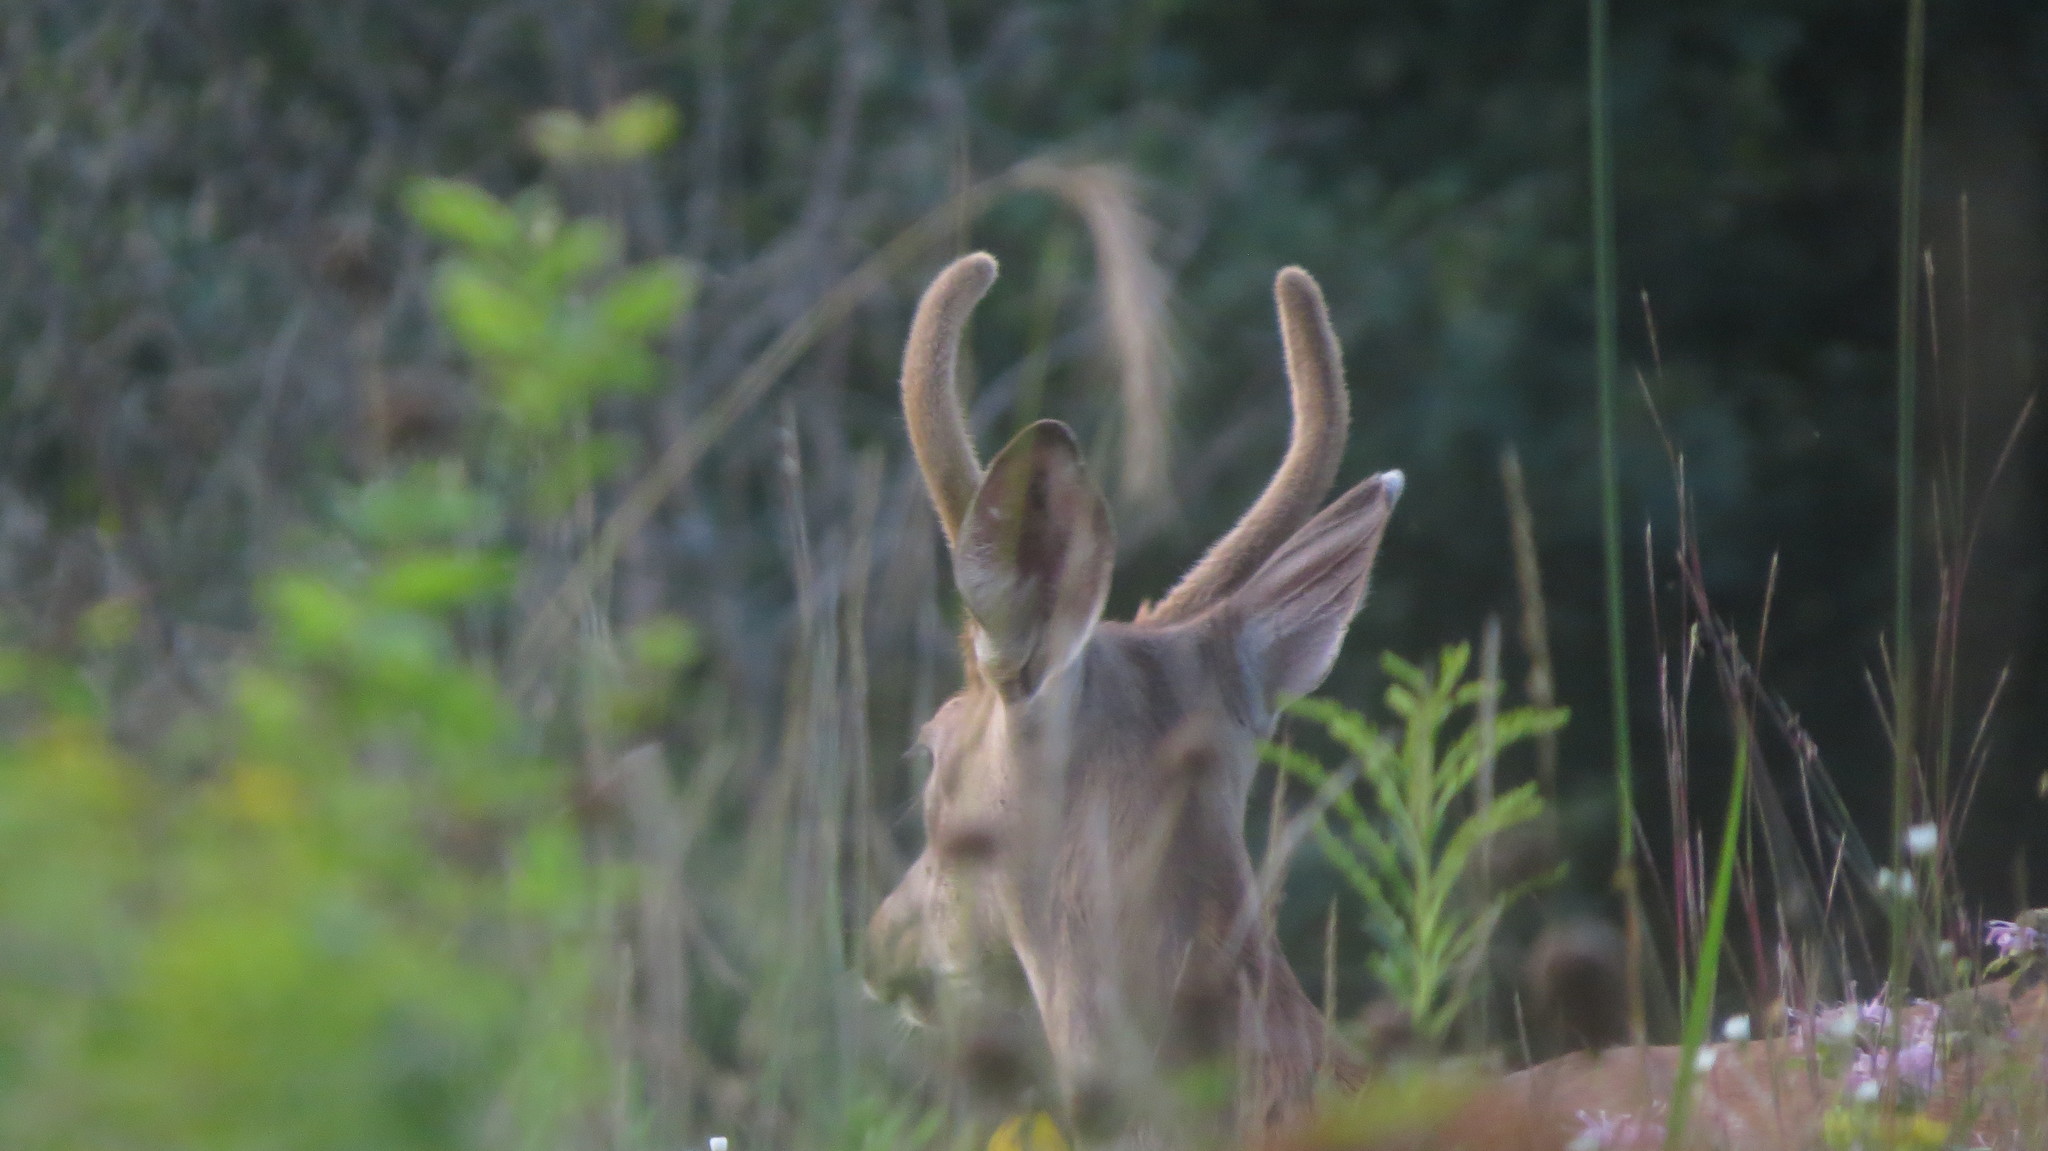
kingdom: Animalia
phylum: Chordata
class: Mammalia
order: Artiodactyla
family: Cervidae
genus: Odocoileus
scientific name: Odocoileus virginianus
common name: White-tailed deer
